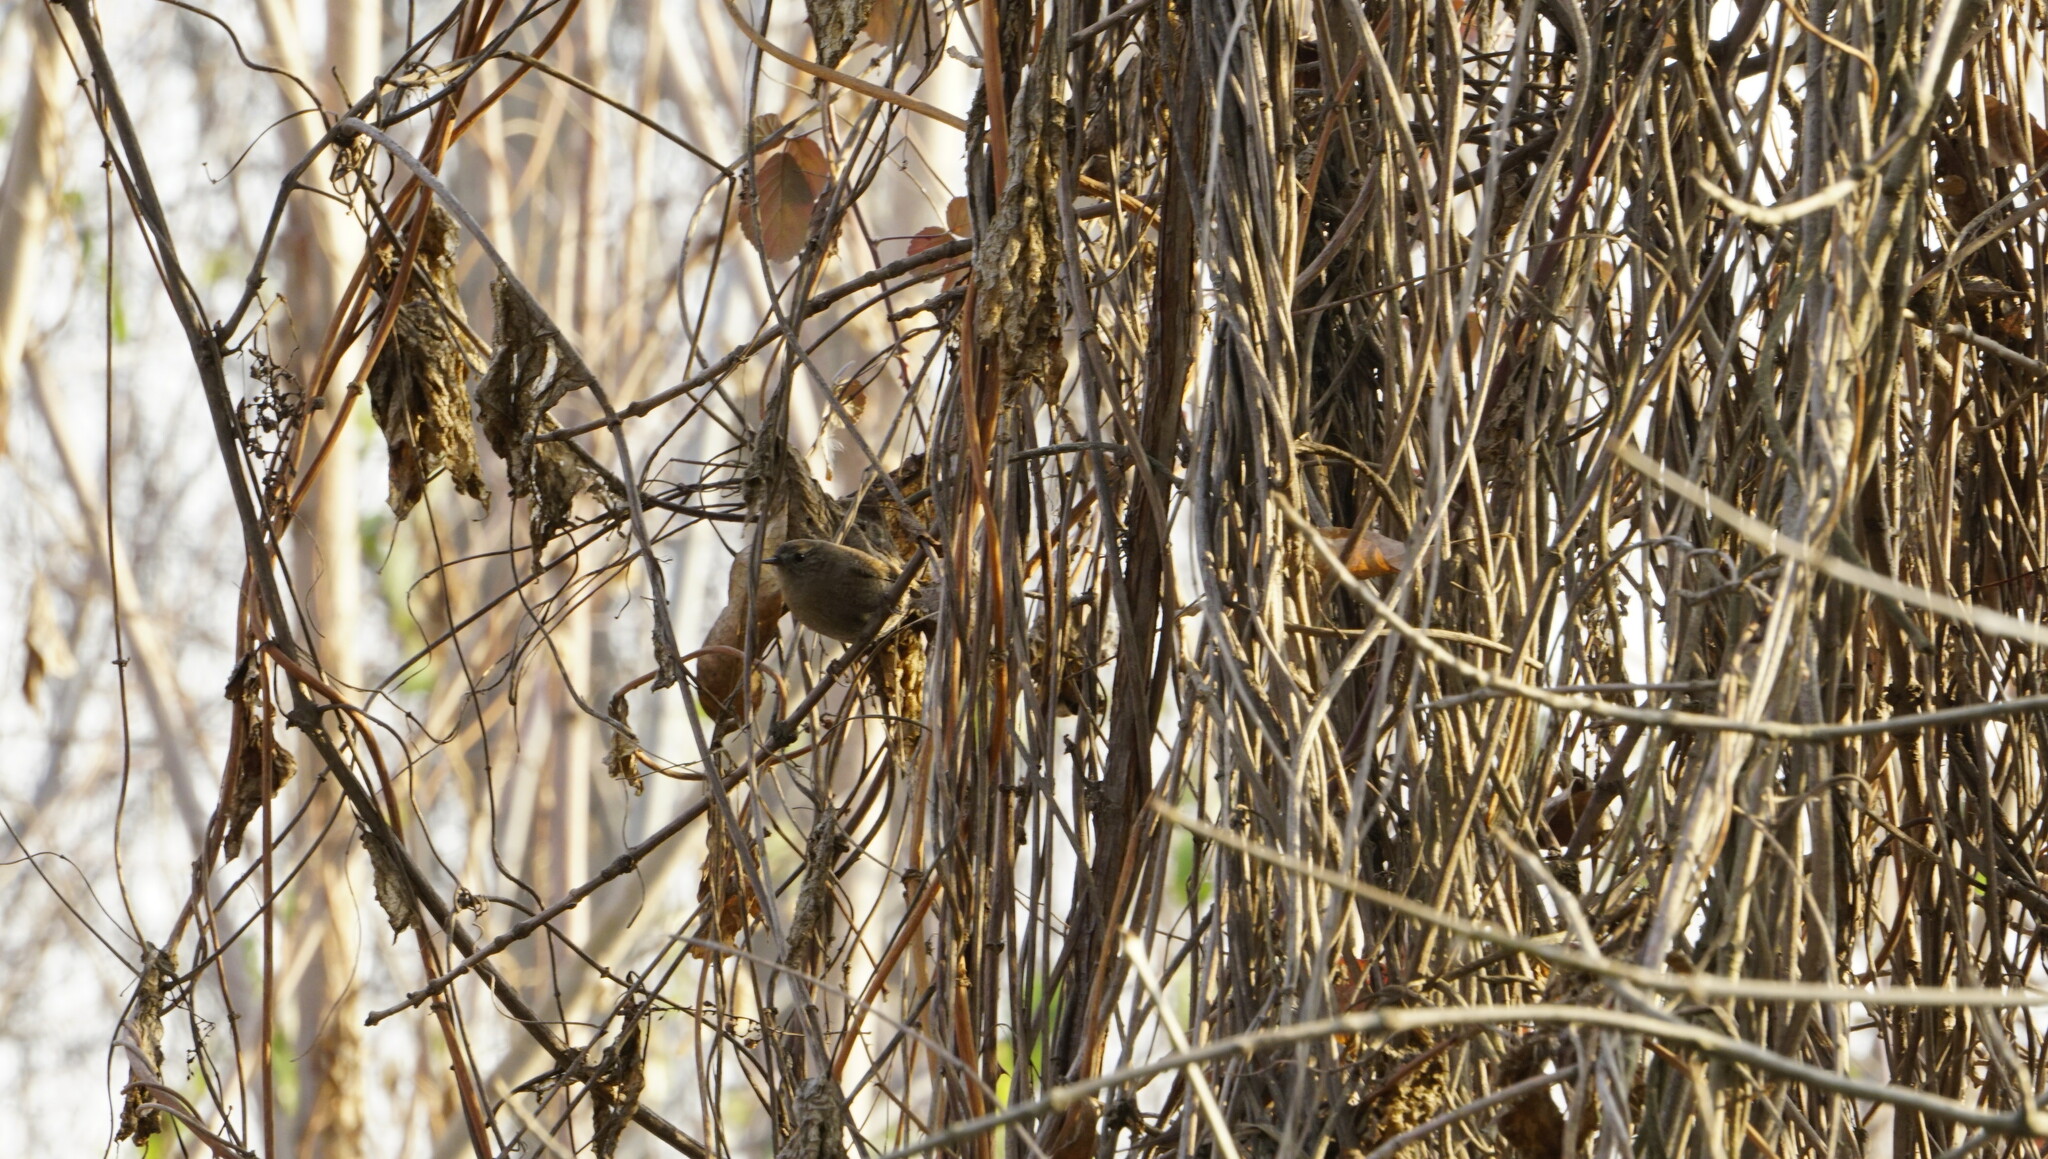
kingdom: Animalia
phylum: Chordata
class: Aves
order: Passeriformes
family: Troglodytidae
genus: Troglodytes
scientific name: Troglodytes troglodytes
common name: Eurasian wren
